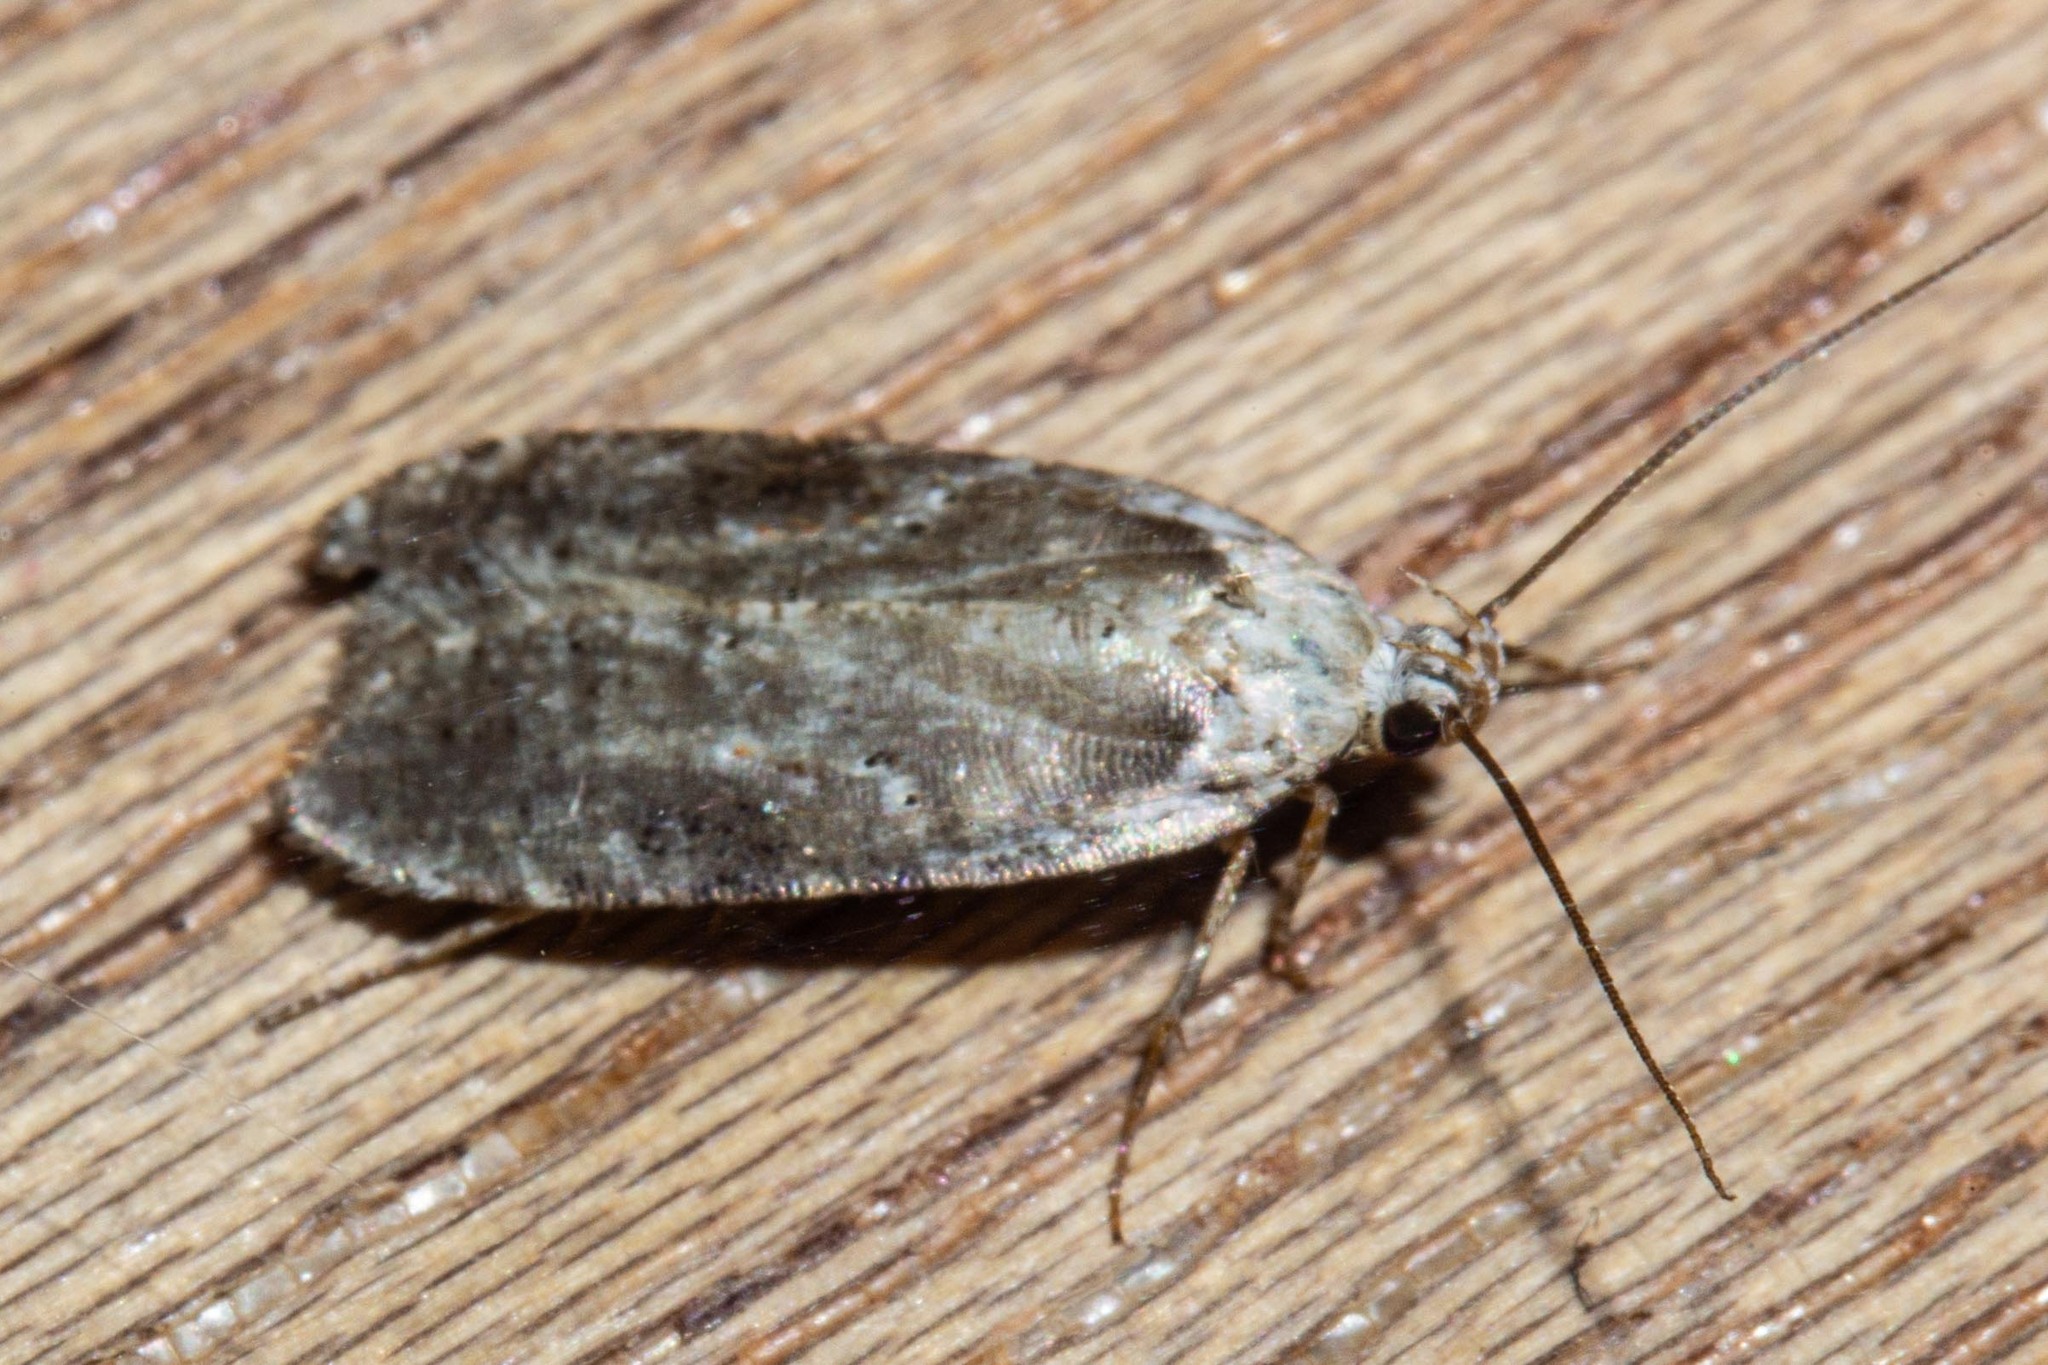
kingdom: Animalia
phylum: Arthropoda
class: Insecta
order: Lepidoptera
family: Depressariidae
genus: Agonopterix
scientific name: Agonopterix alstroemeriana
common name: Moth
